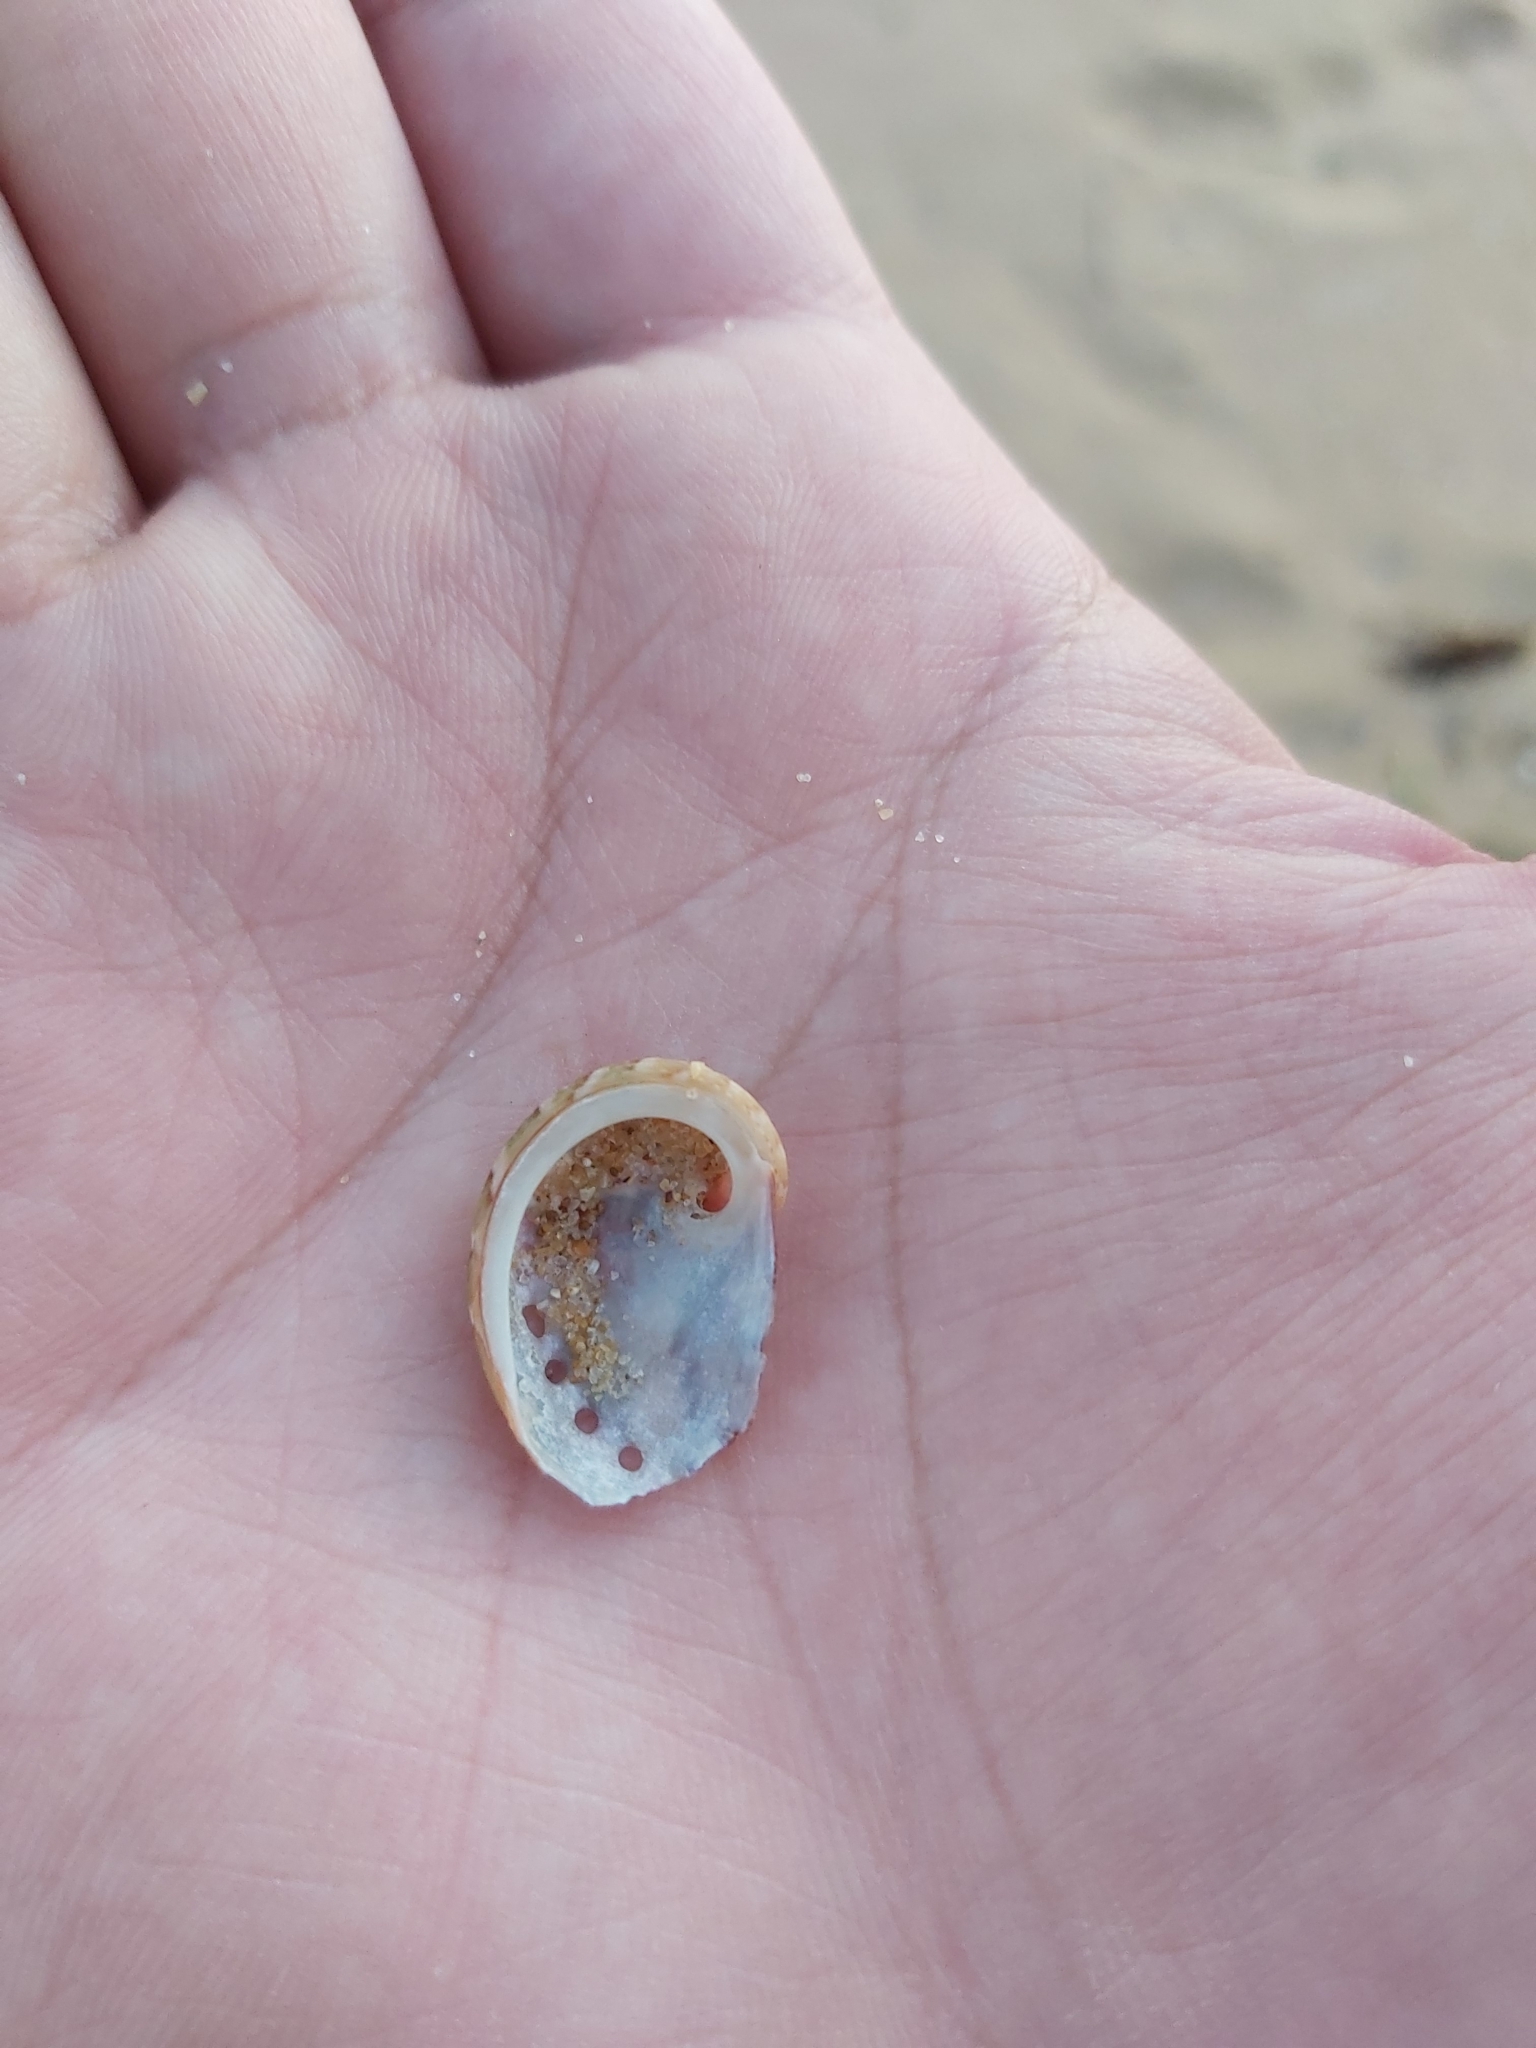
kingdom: Animalia
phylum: Mollusca
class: Gastropoda
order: Lepetellida
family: Haliotidae
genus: Haliotis
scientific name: Haliotis coccoradiata
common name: Reddish-rayed abalone
